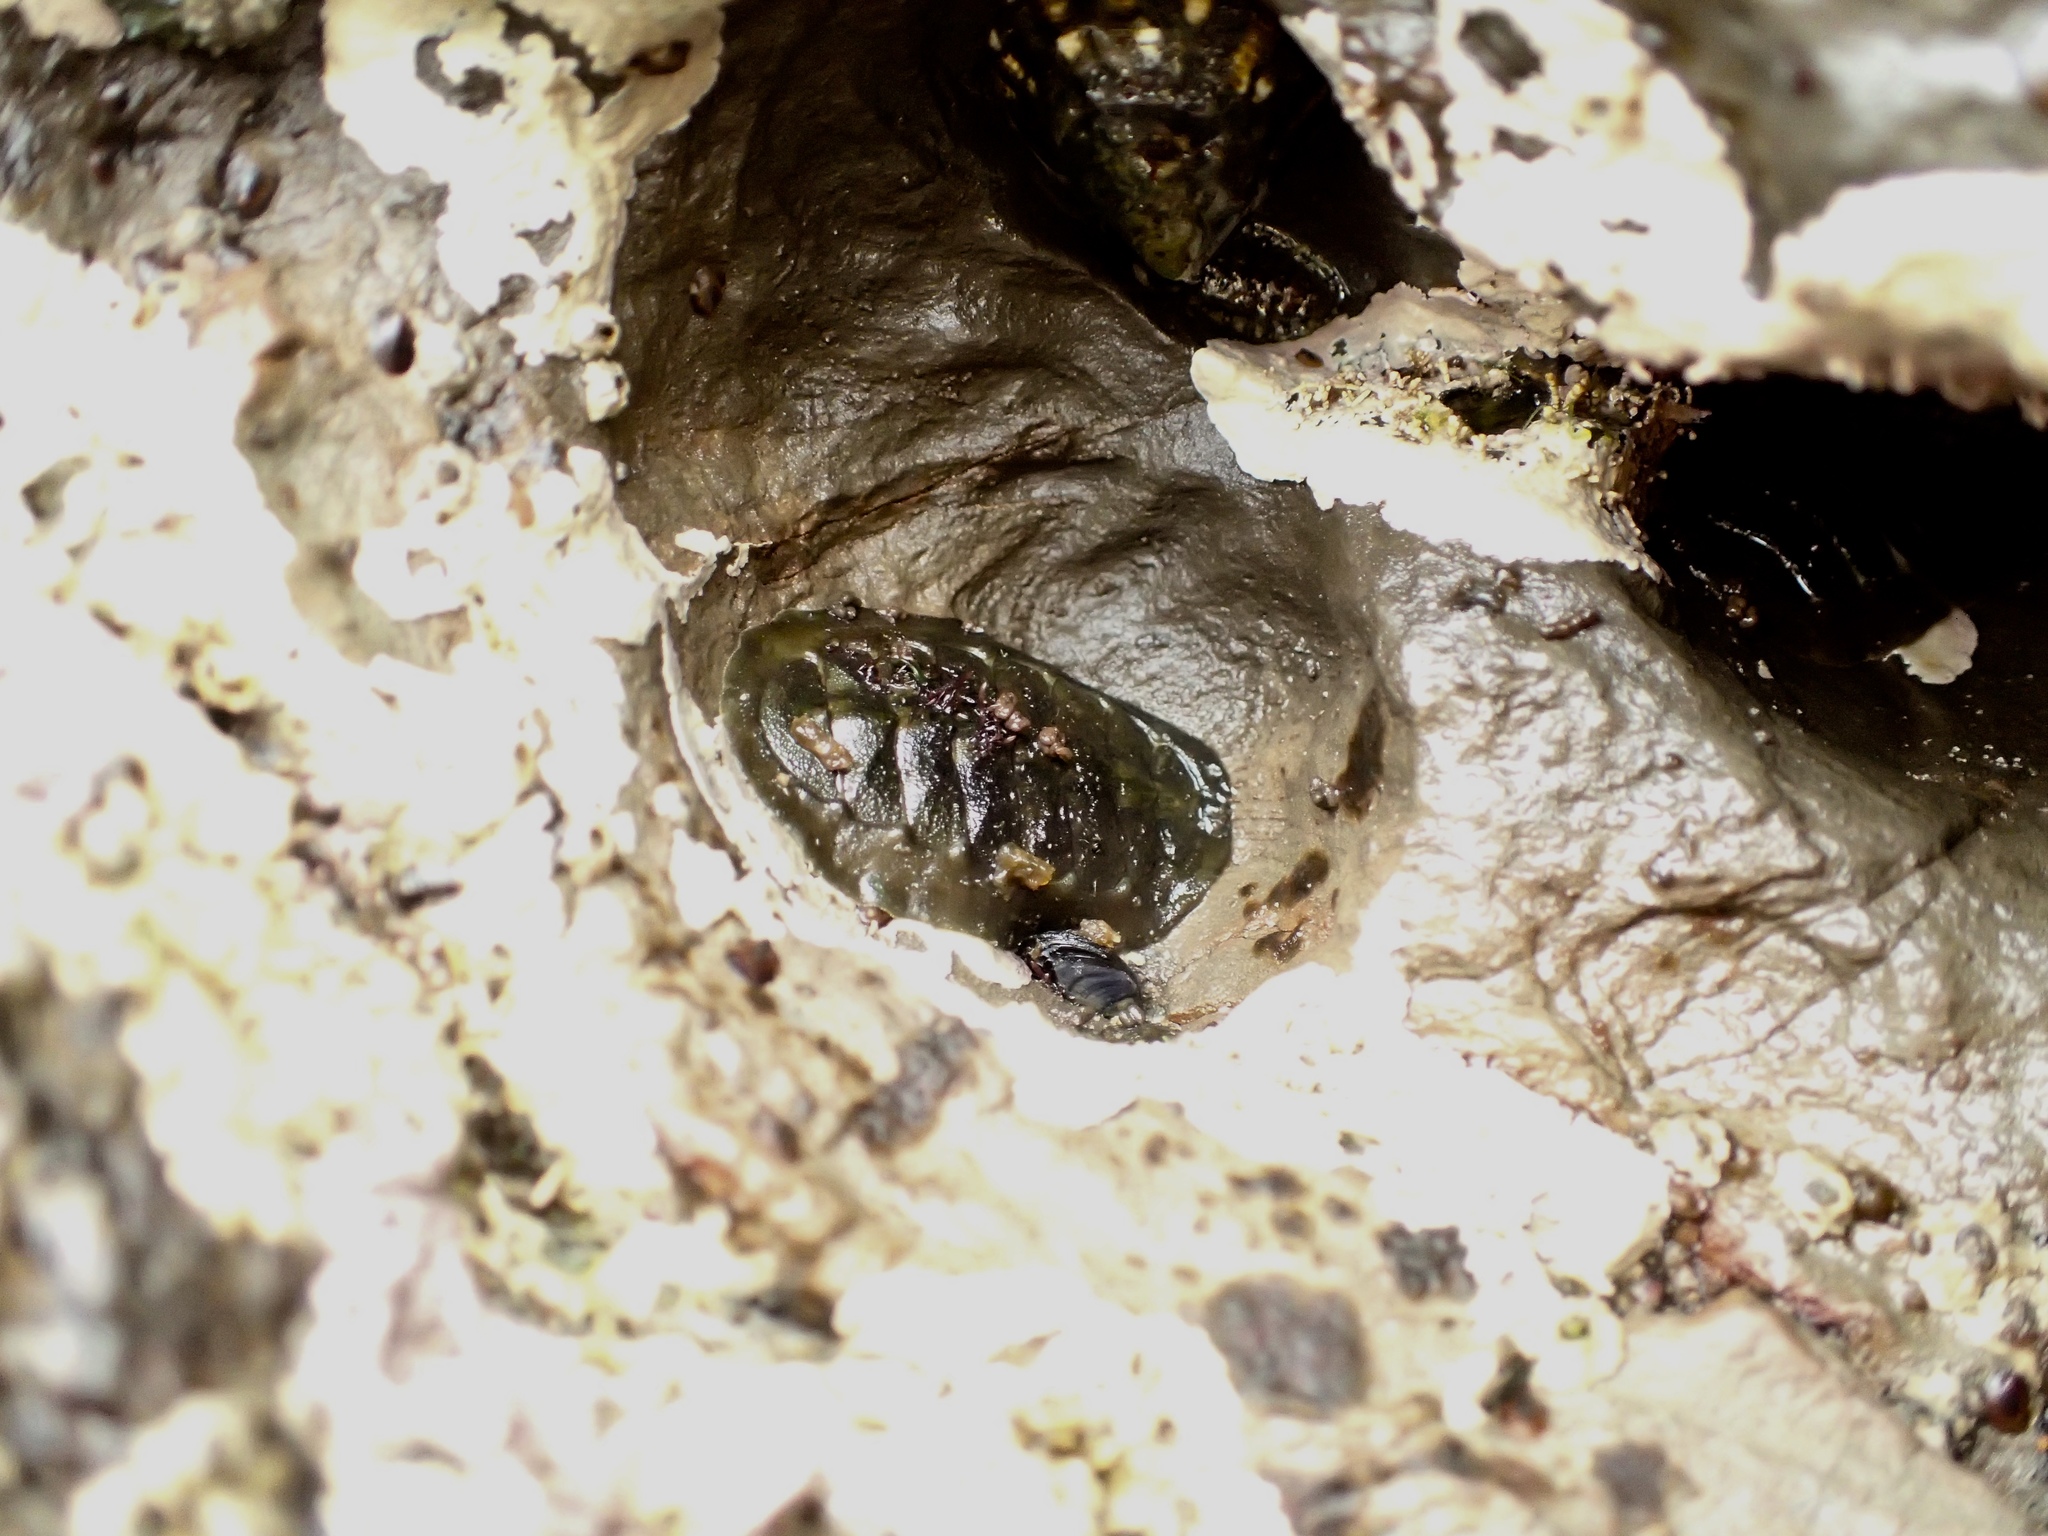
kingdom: Animalia
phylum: Mollusca
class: Polyplacophora
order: Chitonida
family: Tonicellidae
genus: Cyanoplax
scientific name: Cyanoplax hartwegii
